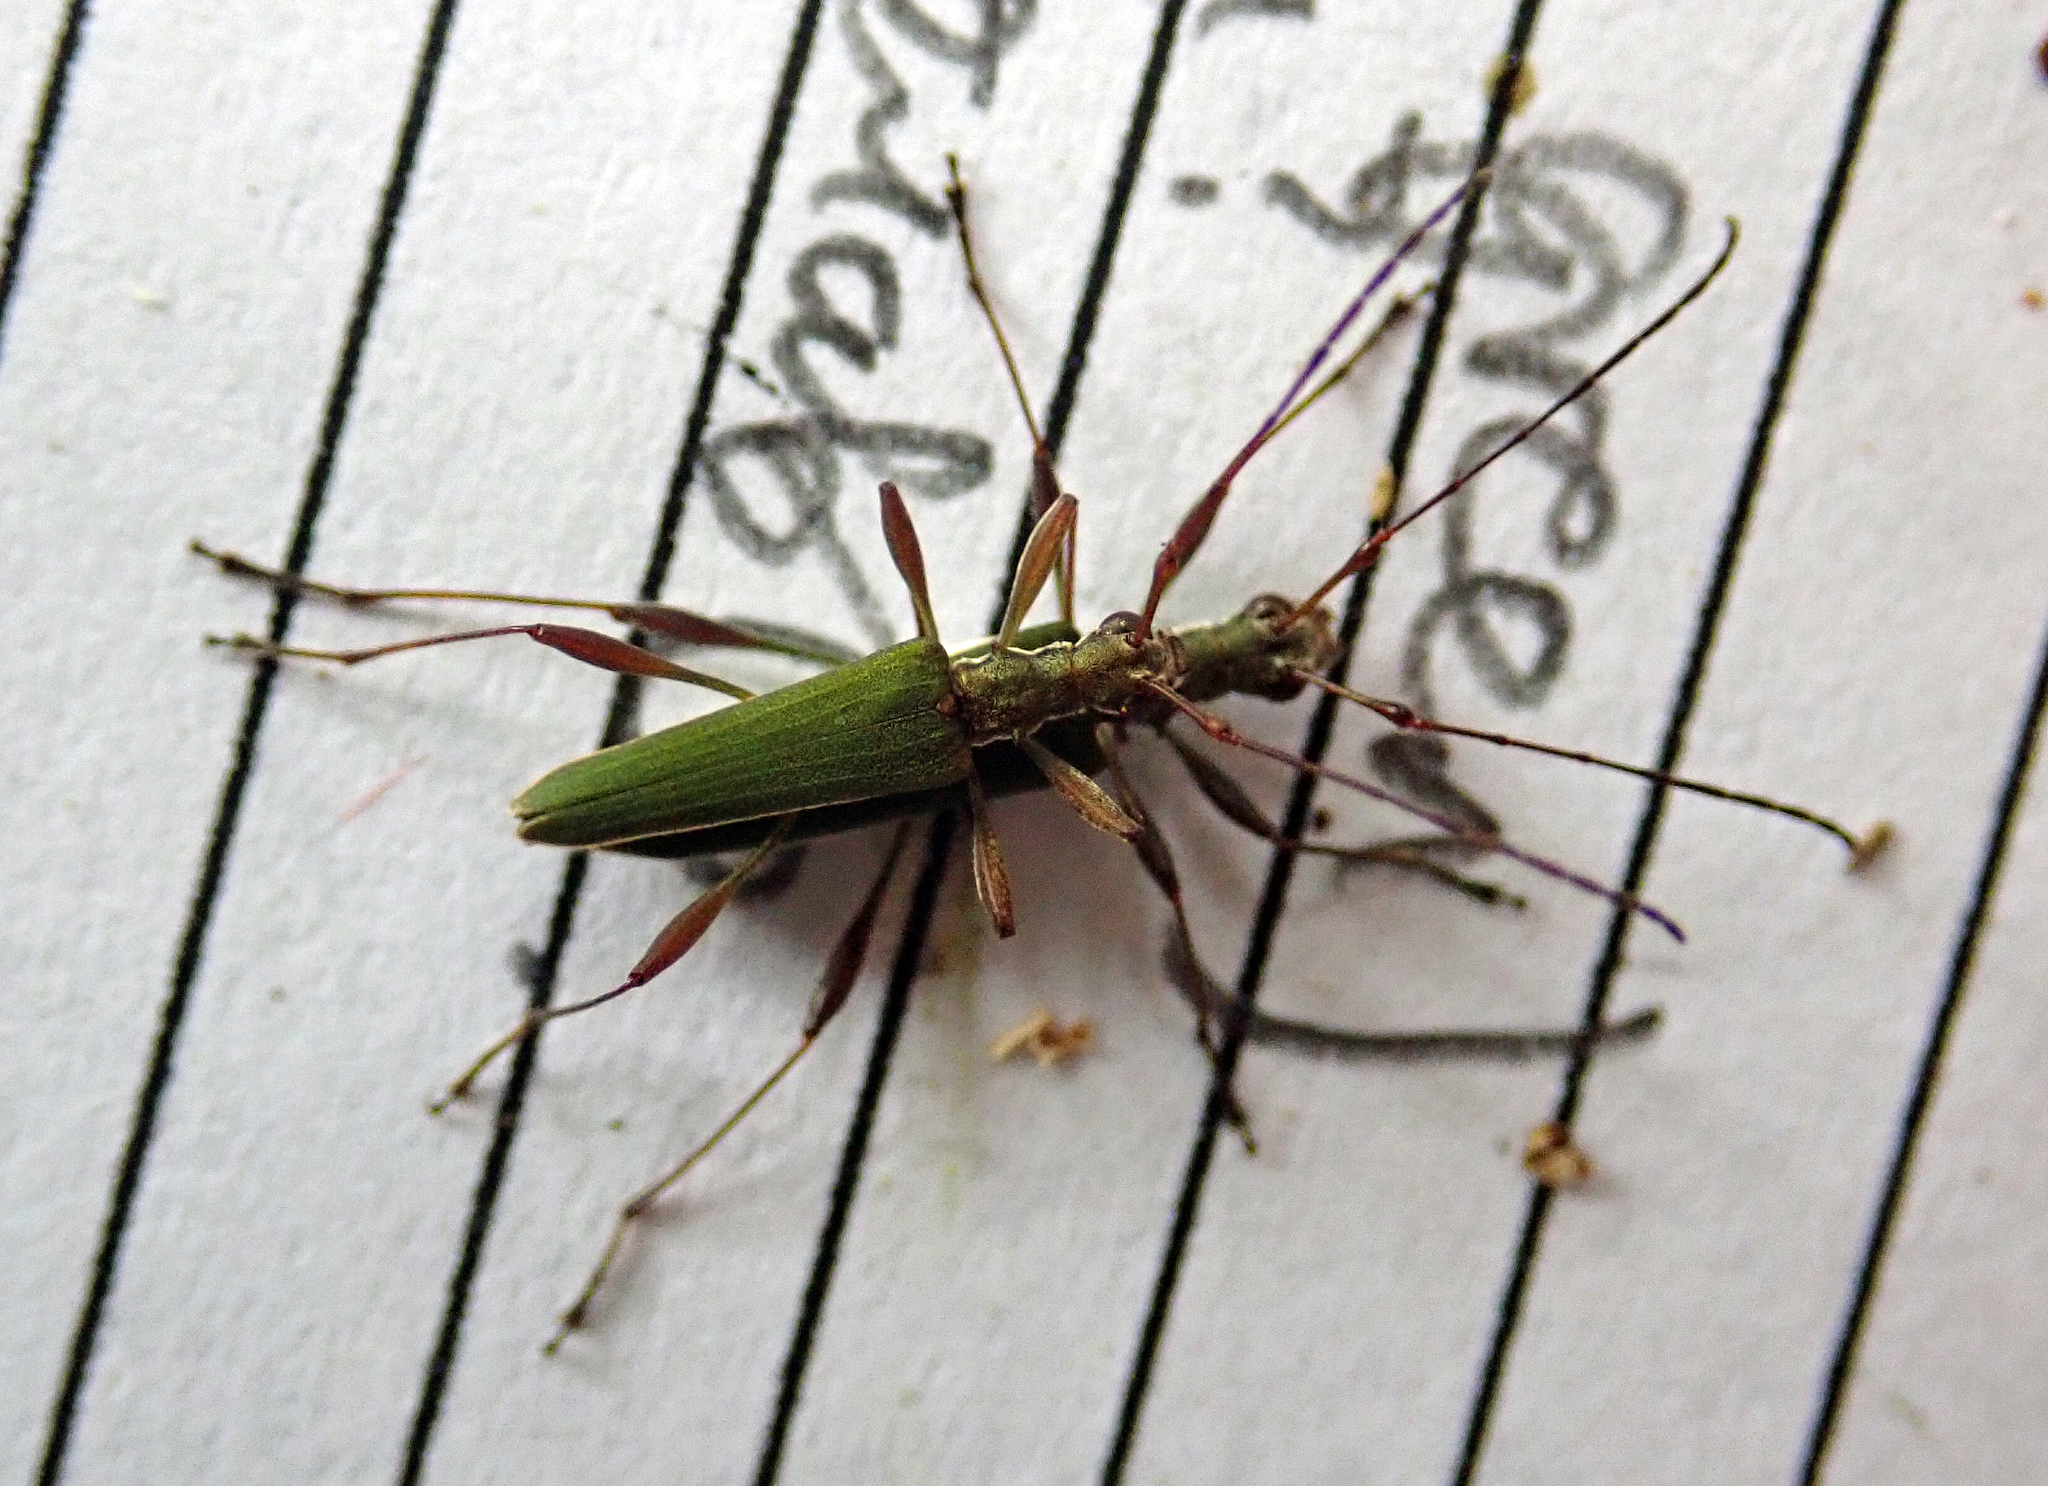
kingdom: Animalia
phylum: Arthropoda
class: Insecta
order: Coleoptera
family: Cerambycidae
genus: Calliprason
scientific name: Calliprason sinclairi
